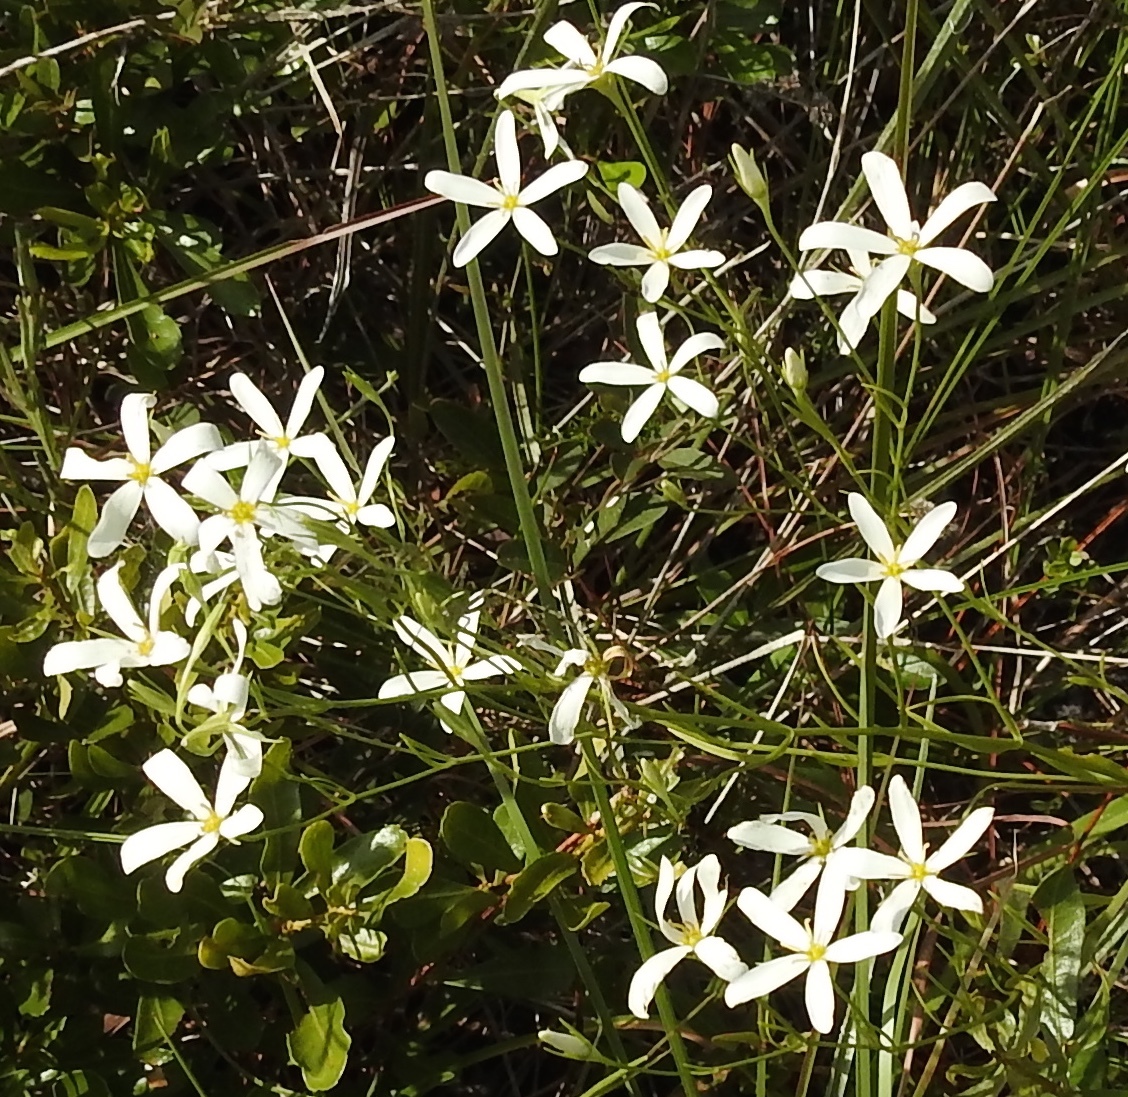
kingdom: Plantae
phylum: Tracheophyta
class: Magnoliopsida
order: Gentianales
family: Gentianaceae
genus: Sabatia
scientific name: Sabatia brevifolia
